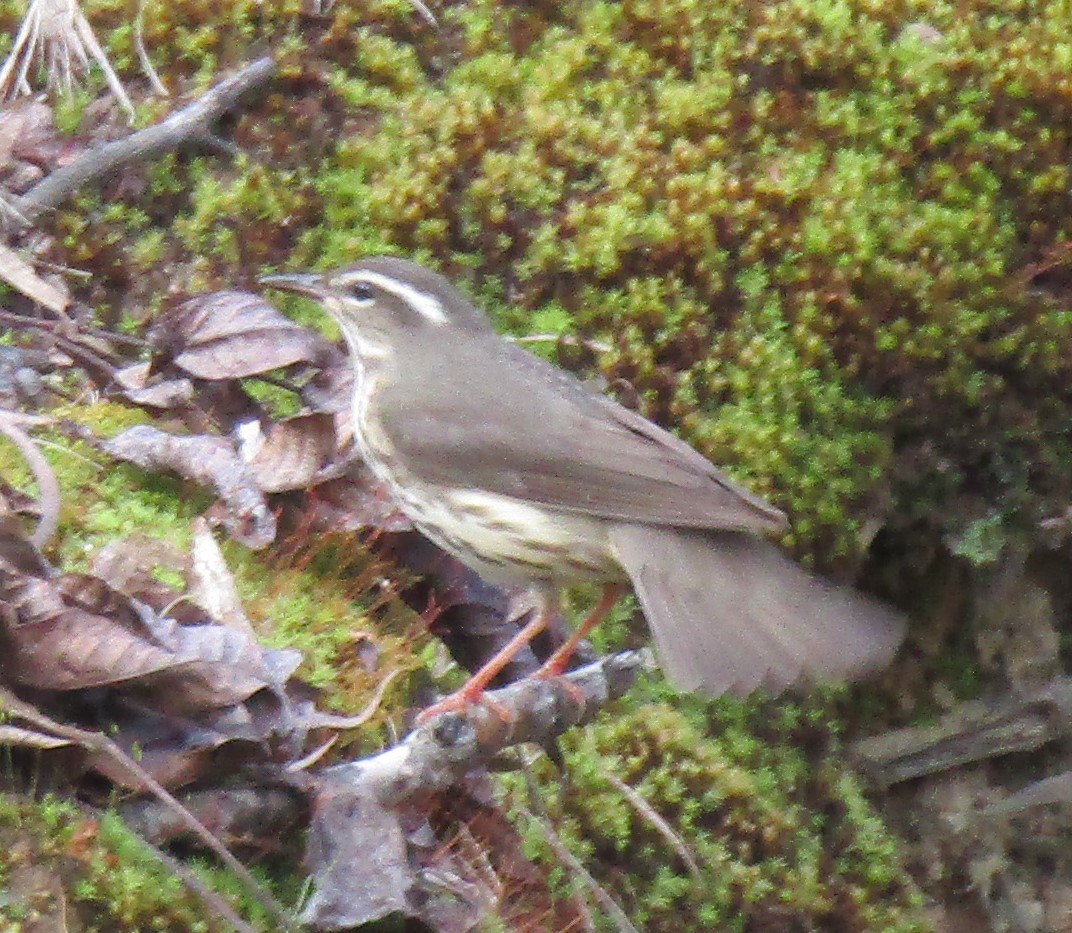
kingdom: Animalia
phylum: Chordata
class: Aves
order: Passeriformes
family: Parulidae
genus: Parkesia
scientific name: Parkesia motacilla
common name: Louisiana waterthrush
